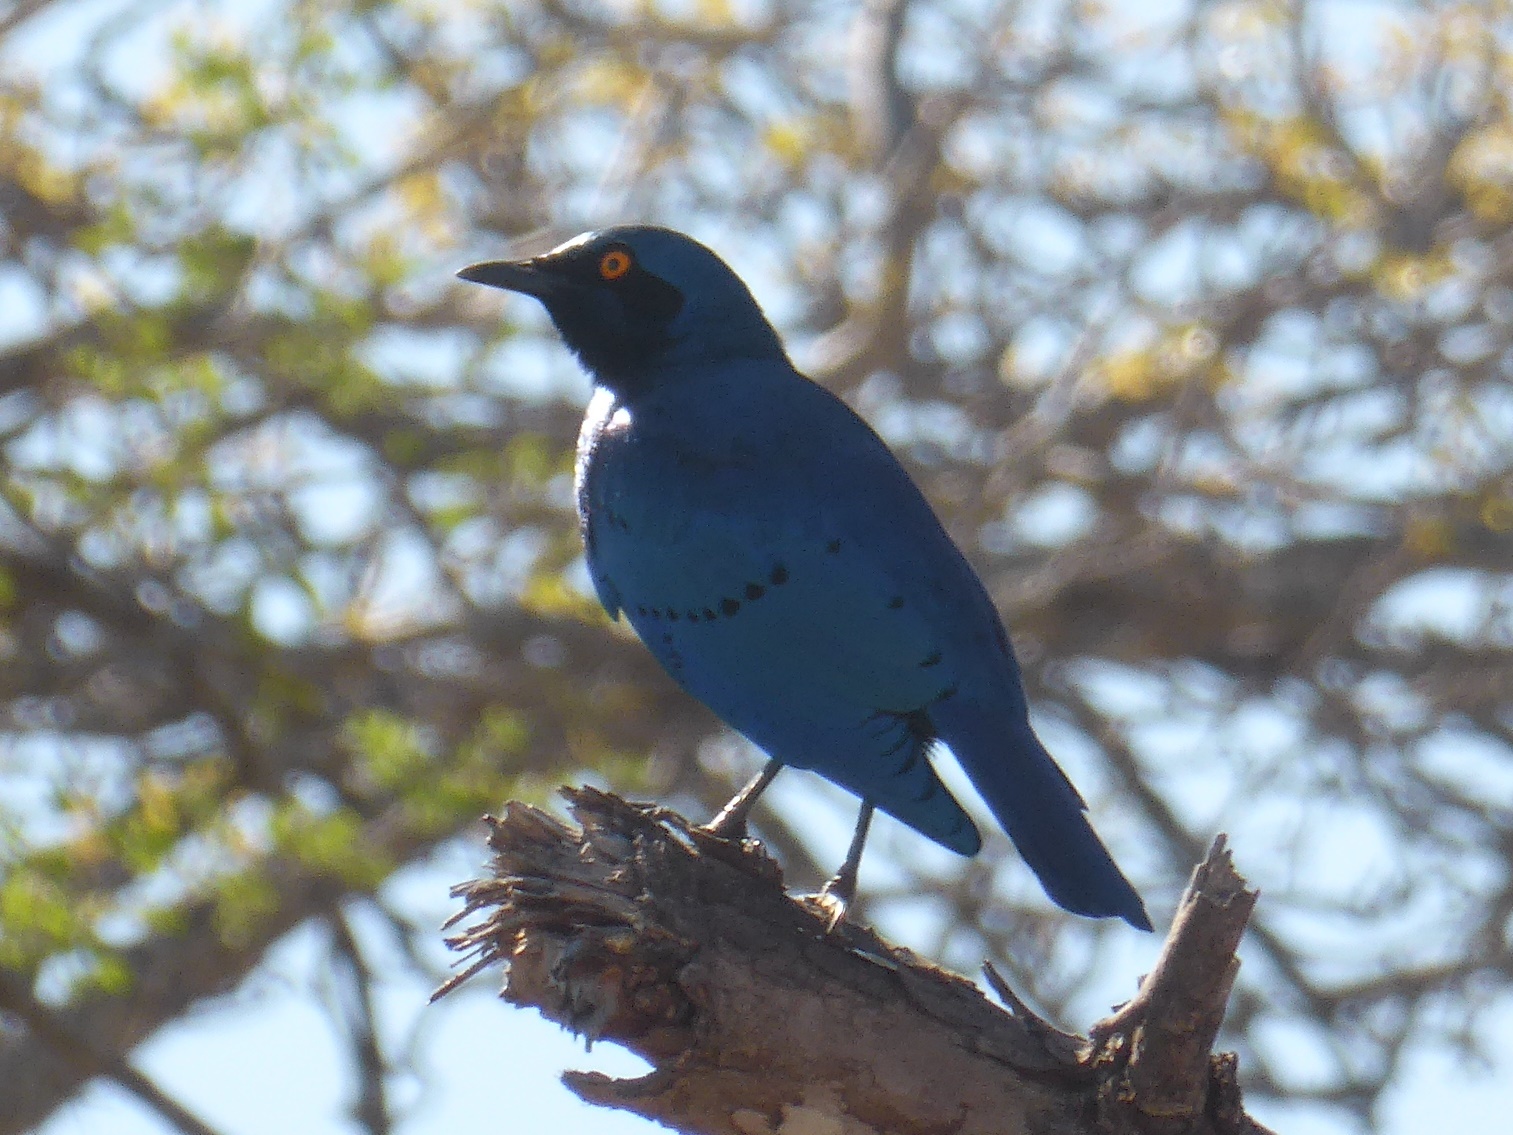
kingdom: Animalia
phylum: Chordata
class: Aves
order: Passeriformes
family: Sturnidae
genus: Lamprotornis
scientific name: Lamprotornis chalybaeus
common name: Greater blue-eared starling
